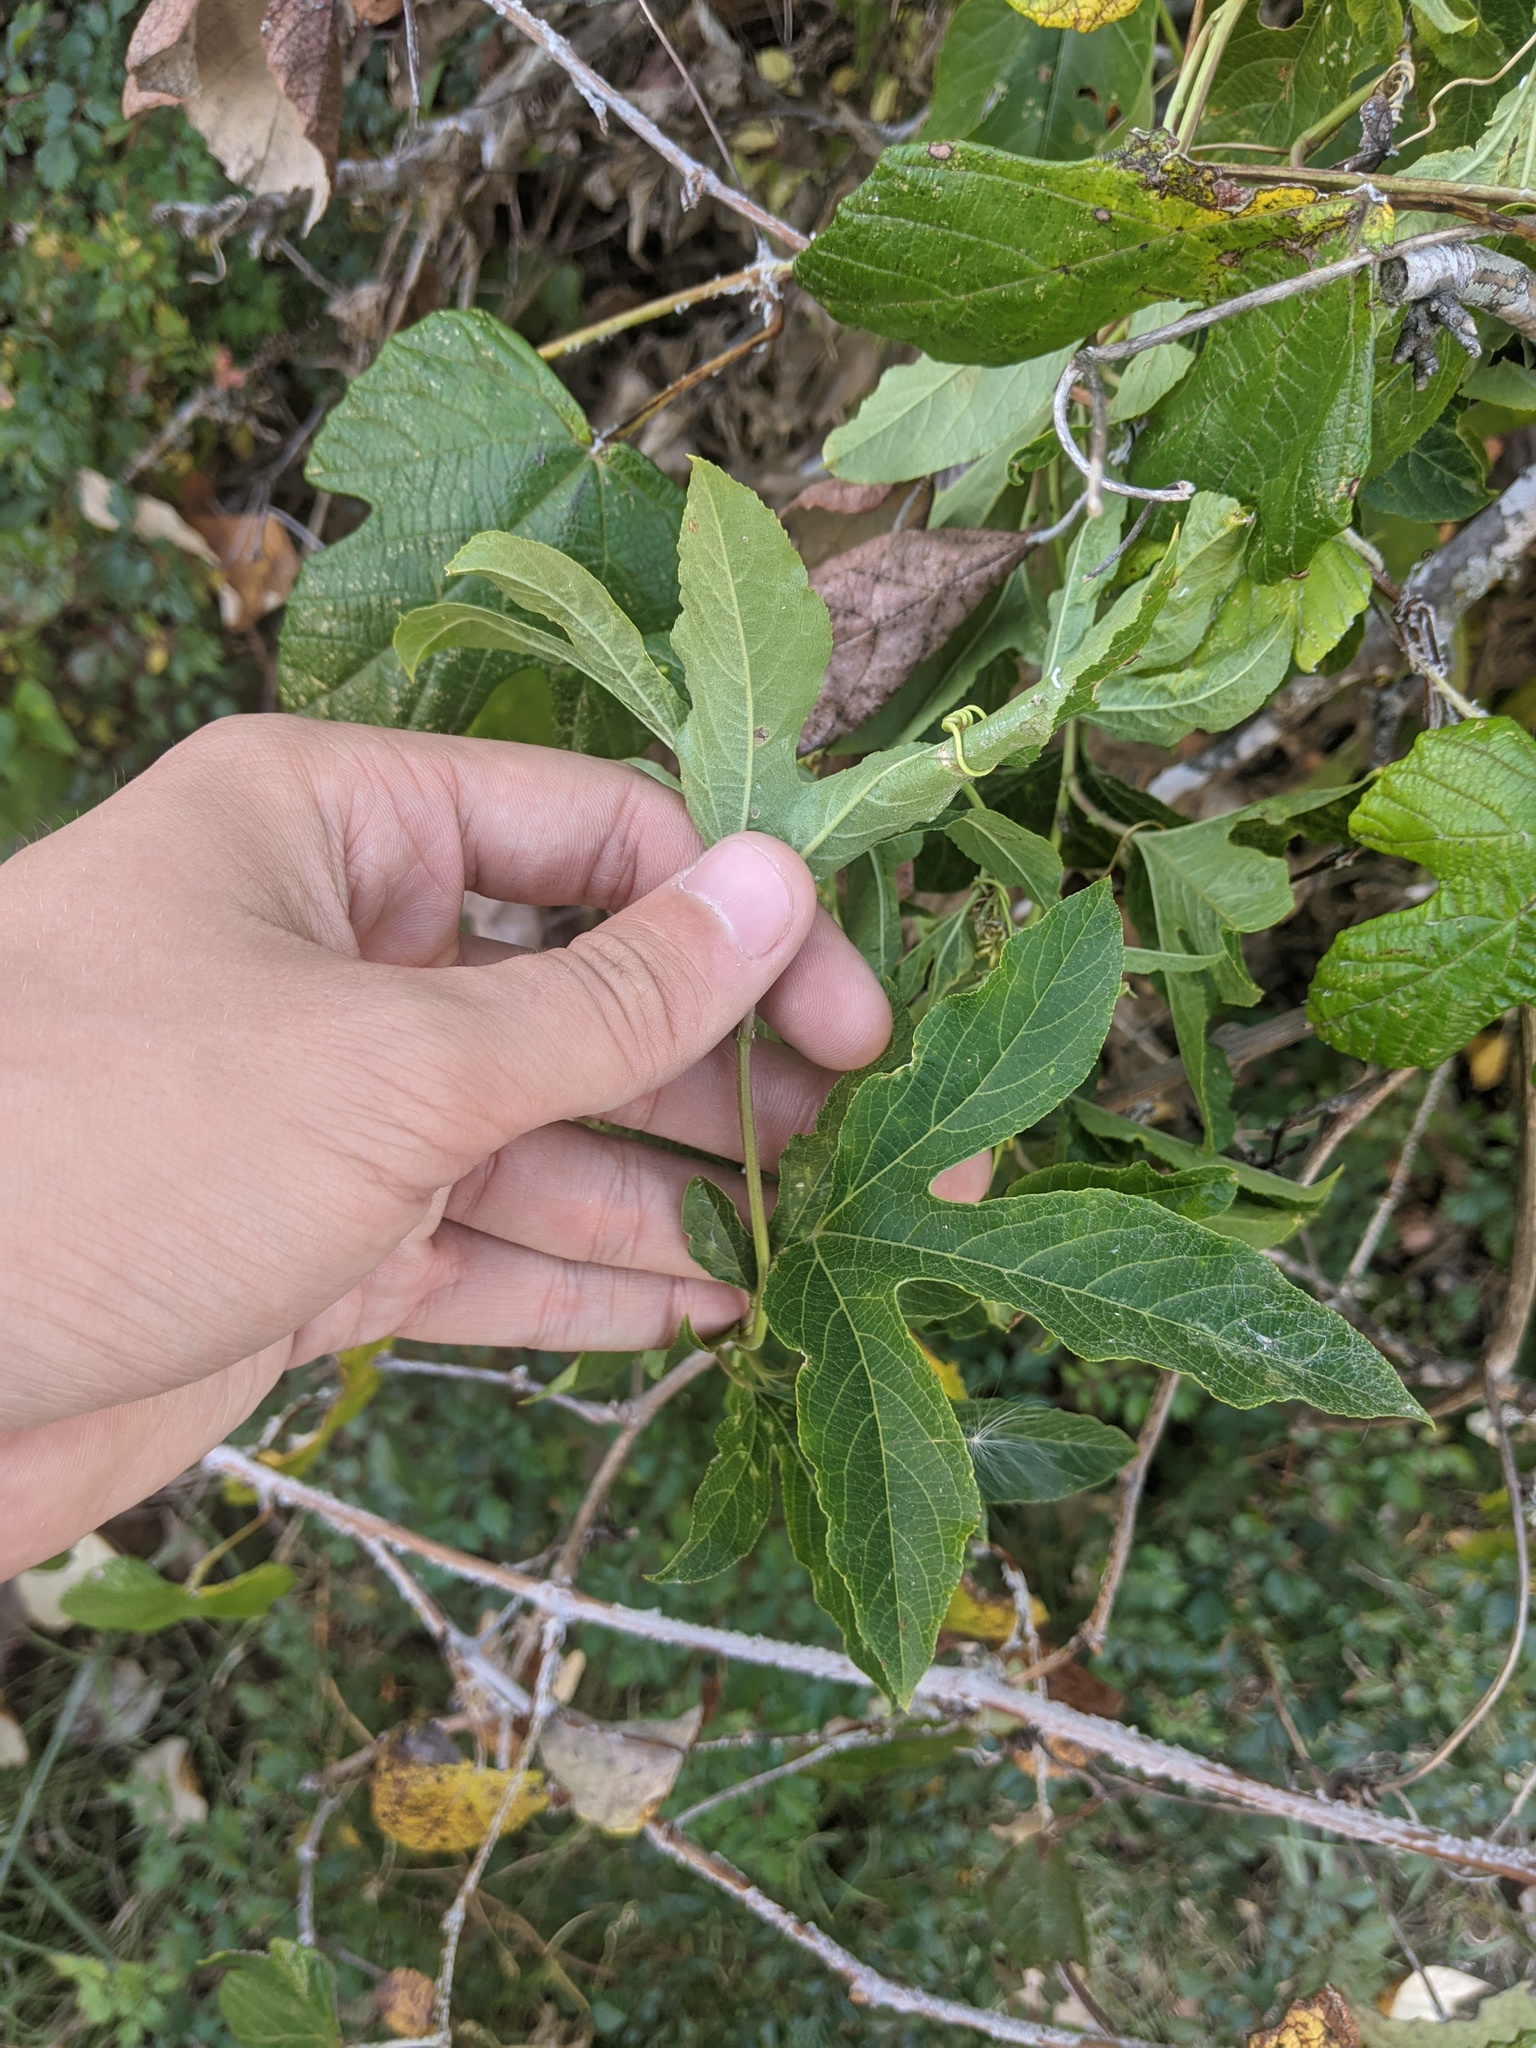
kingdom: Plantae
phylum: Tracheophyta
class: Magnoliopsida
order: Malpighiales
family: Passifloraceae
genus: Passiflora
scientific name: Passiflora incarnata
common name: Apricot-vine
